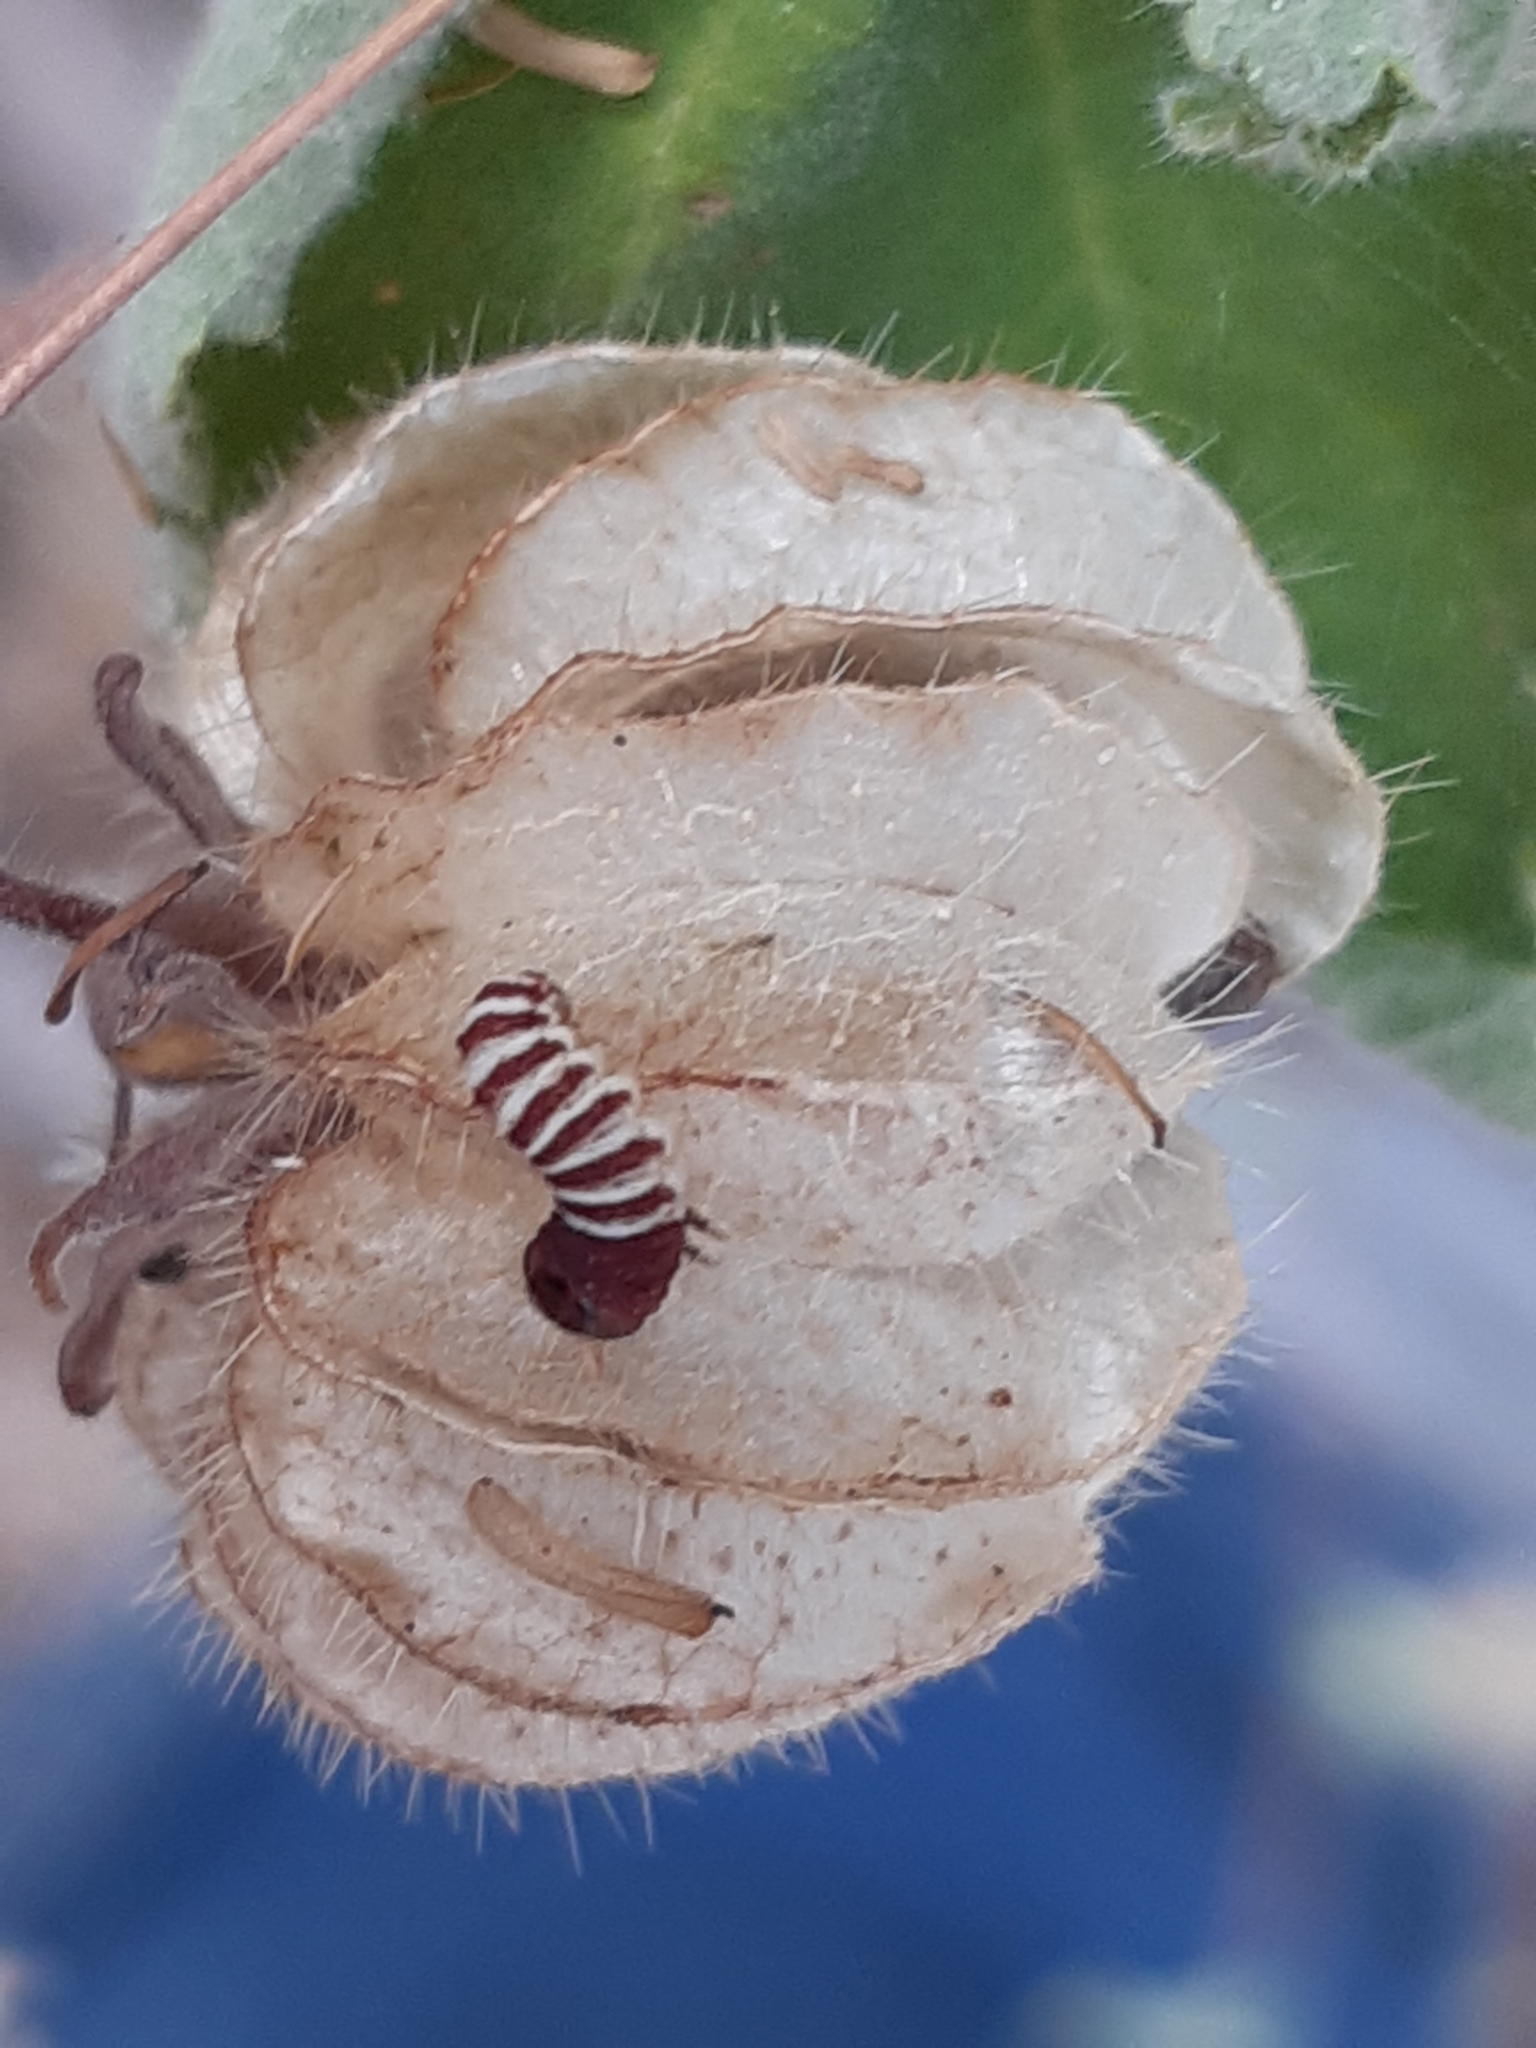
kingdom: Plantae
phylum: Tracheophyta
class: Magnoliopsida
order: Malvales
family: Malvaceae
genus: Herissantia
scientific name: Herissantia crispa
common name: Bladdermallow
